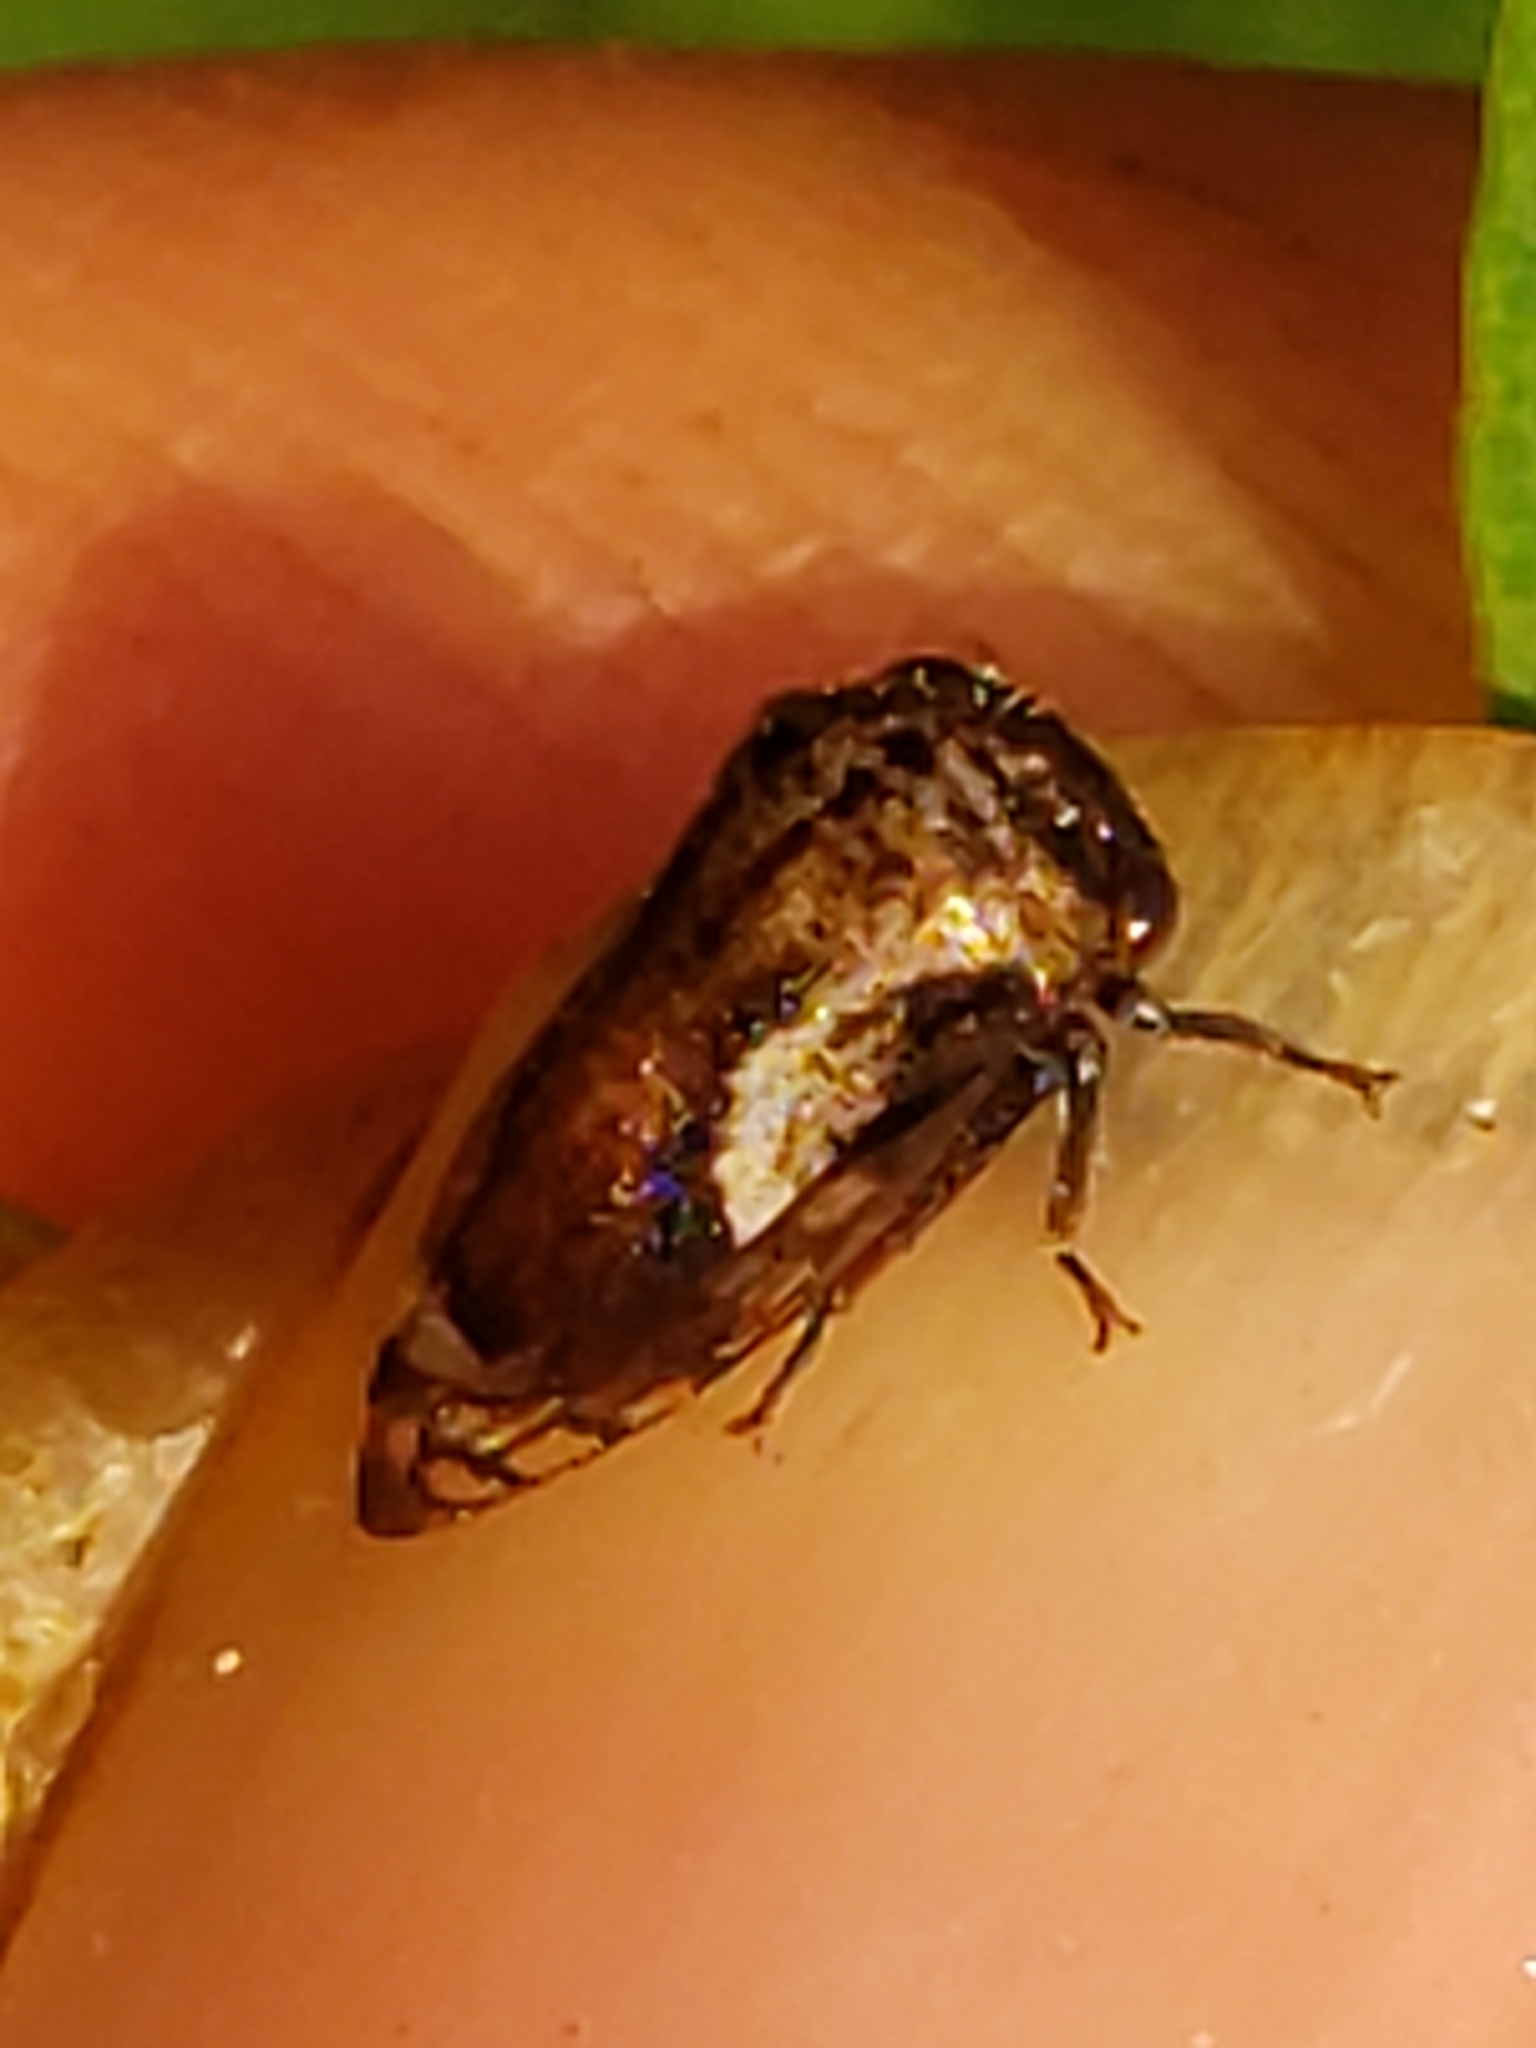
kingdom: Animalia
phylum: Arthropoda
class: Insecta
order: Hemiptera
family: Membracidae
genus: Vanduzea
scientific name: Vanduzea arquata
